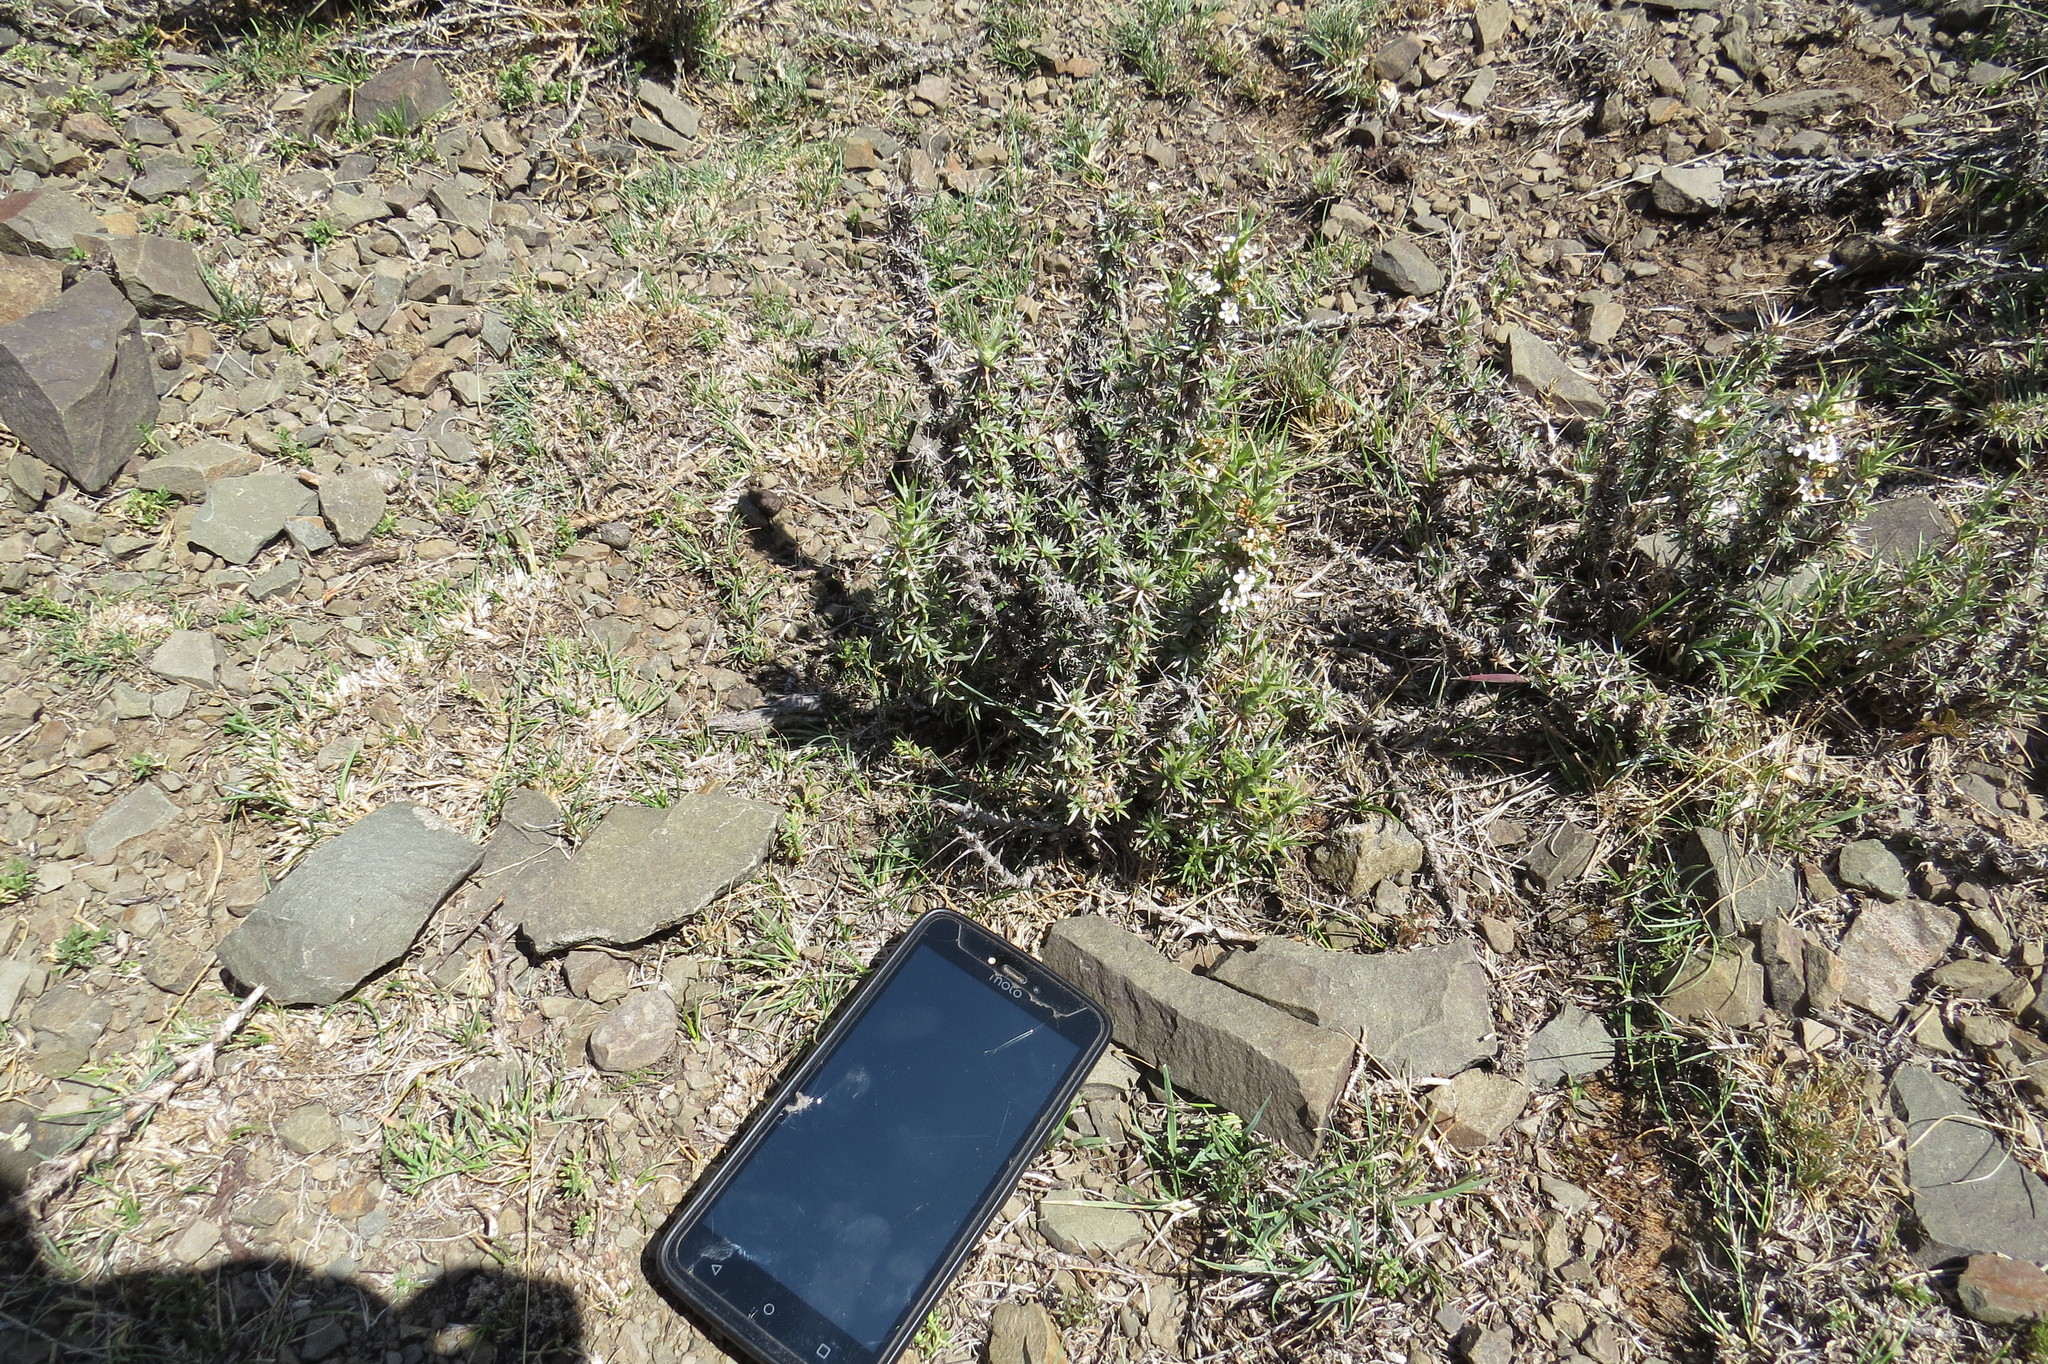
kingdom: Plantae
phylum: Tracheophyta
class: Magnoliopsida
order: Asterales
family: Asteraceae
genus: Nassauvia
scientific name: Nassauvia axillaris
